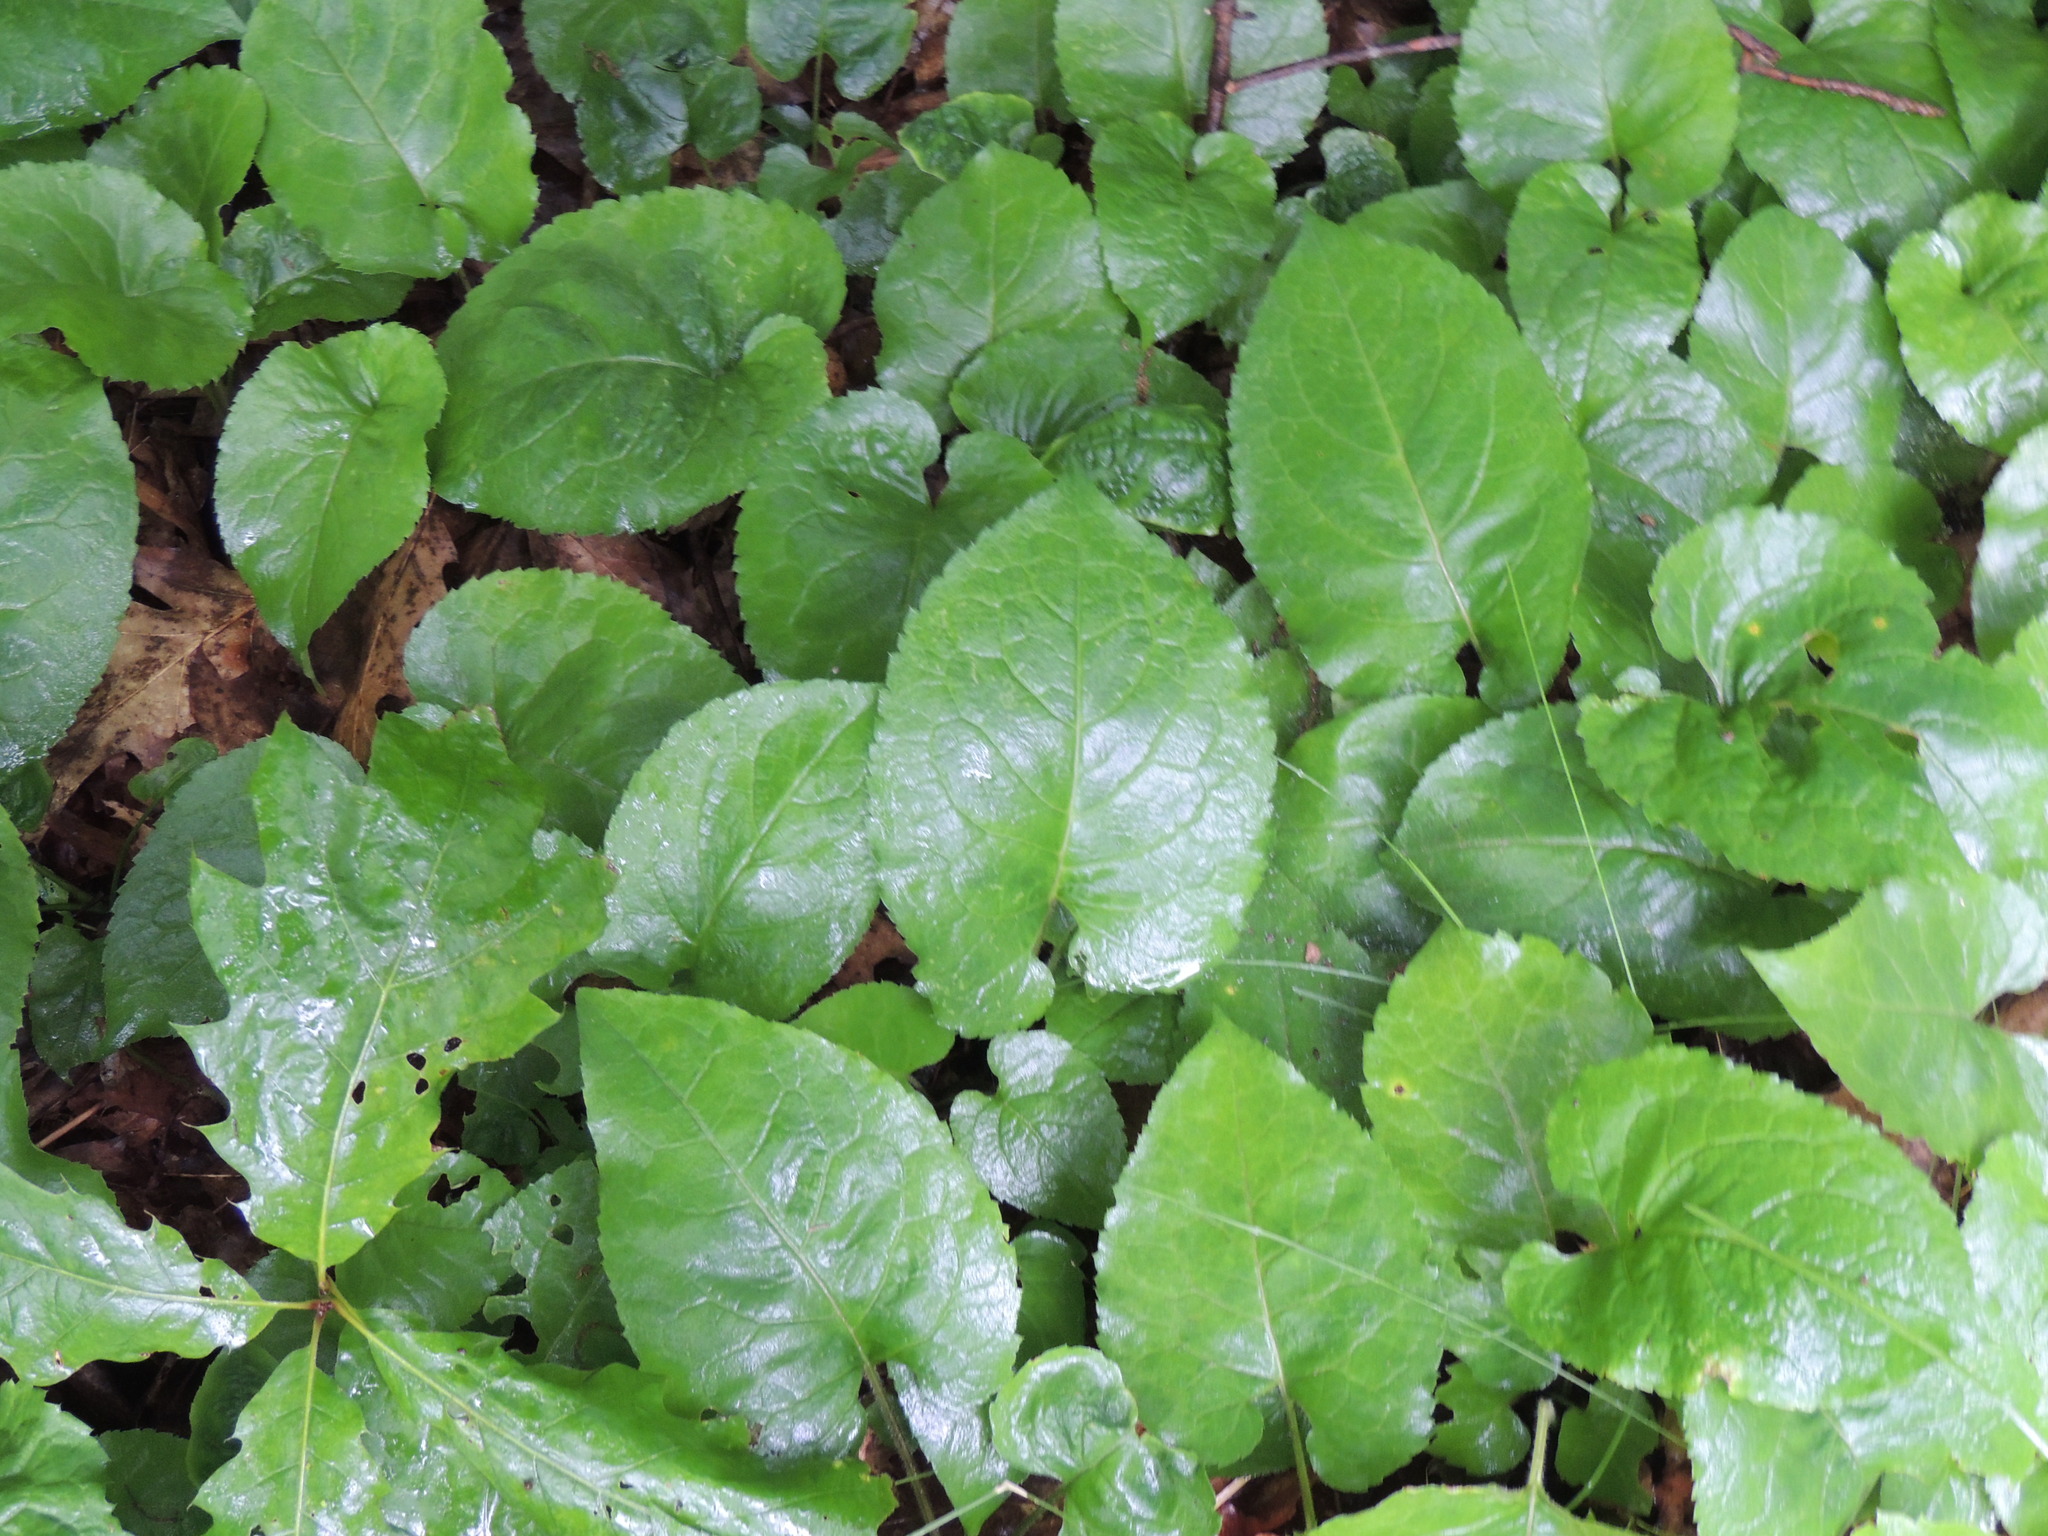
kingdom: Plantae
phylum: Tracheophyta
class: Magnoliopsida
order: Asterales
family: Asteraceae
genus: Eurybia
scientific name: Eurybia macrophylla
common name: Big-leaved aster
